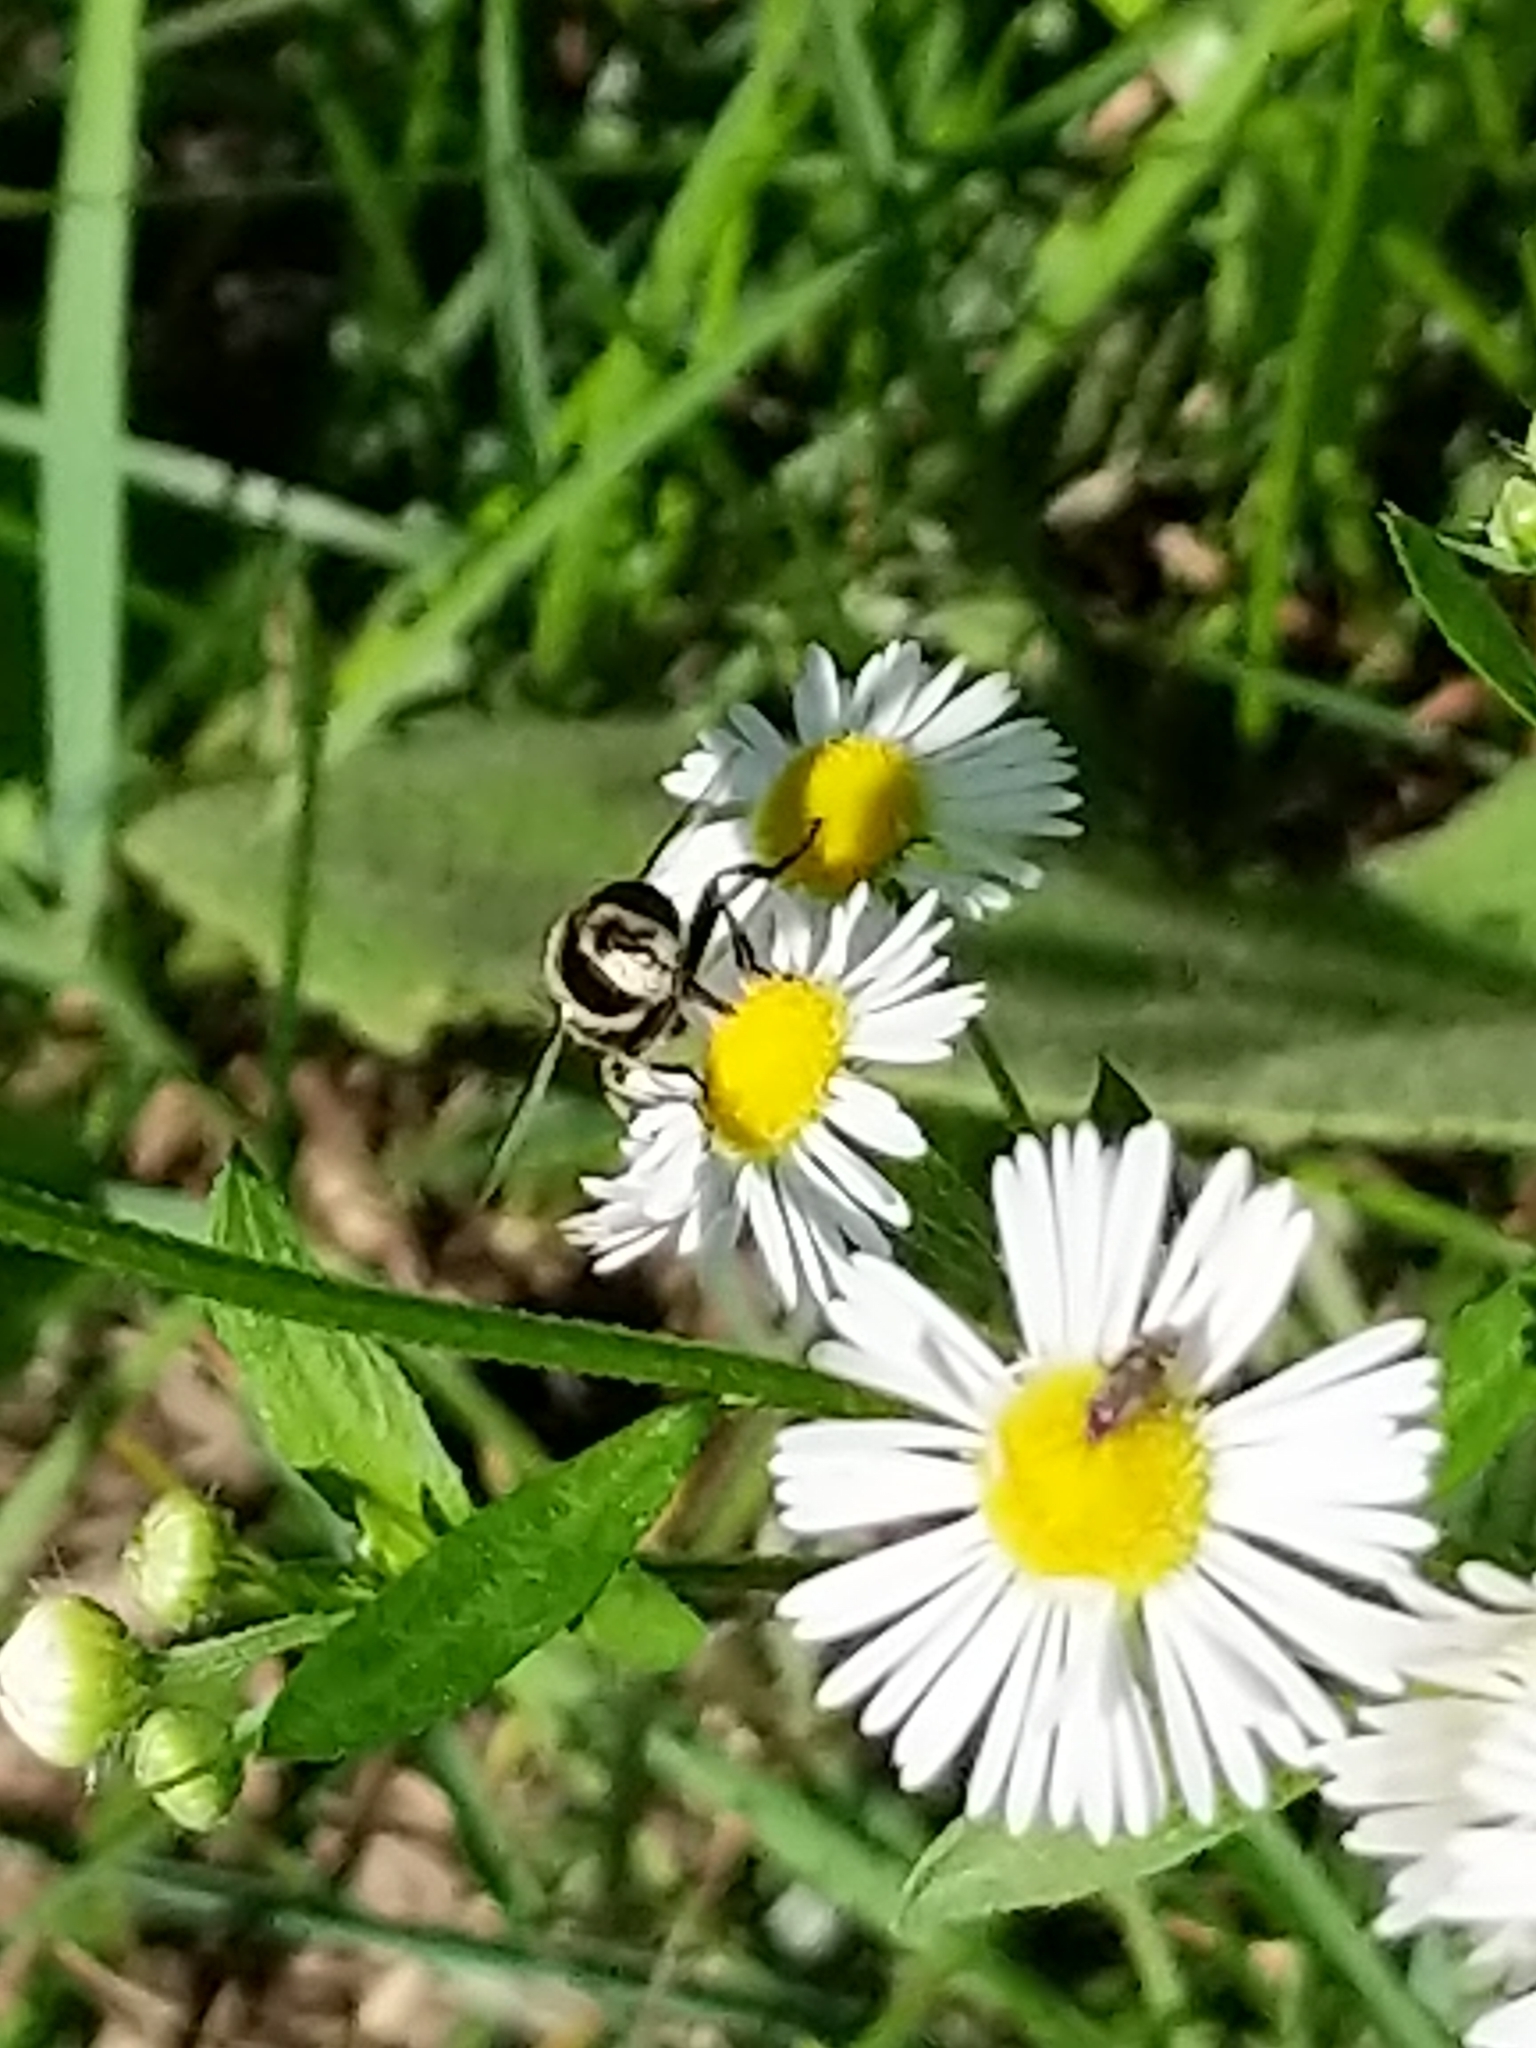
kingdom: Animalia
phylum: Arthropoda
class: Insecta
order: Diptera
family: Syrphidae
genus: Eristalis
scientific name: Eristalis
